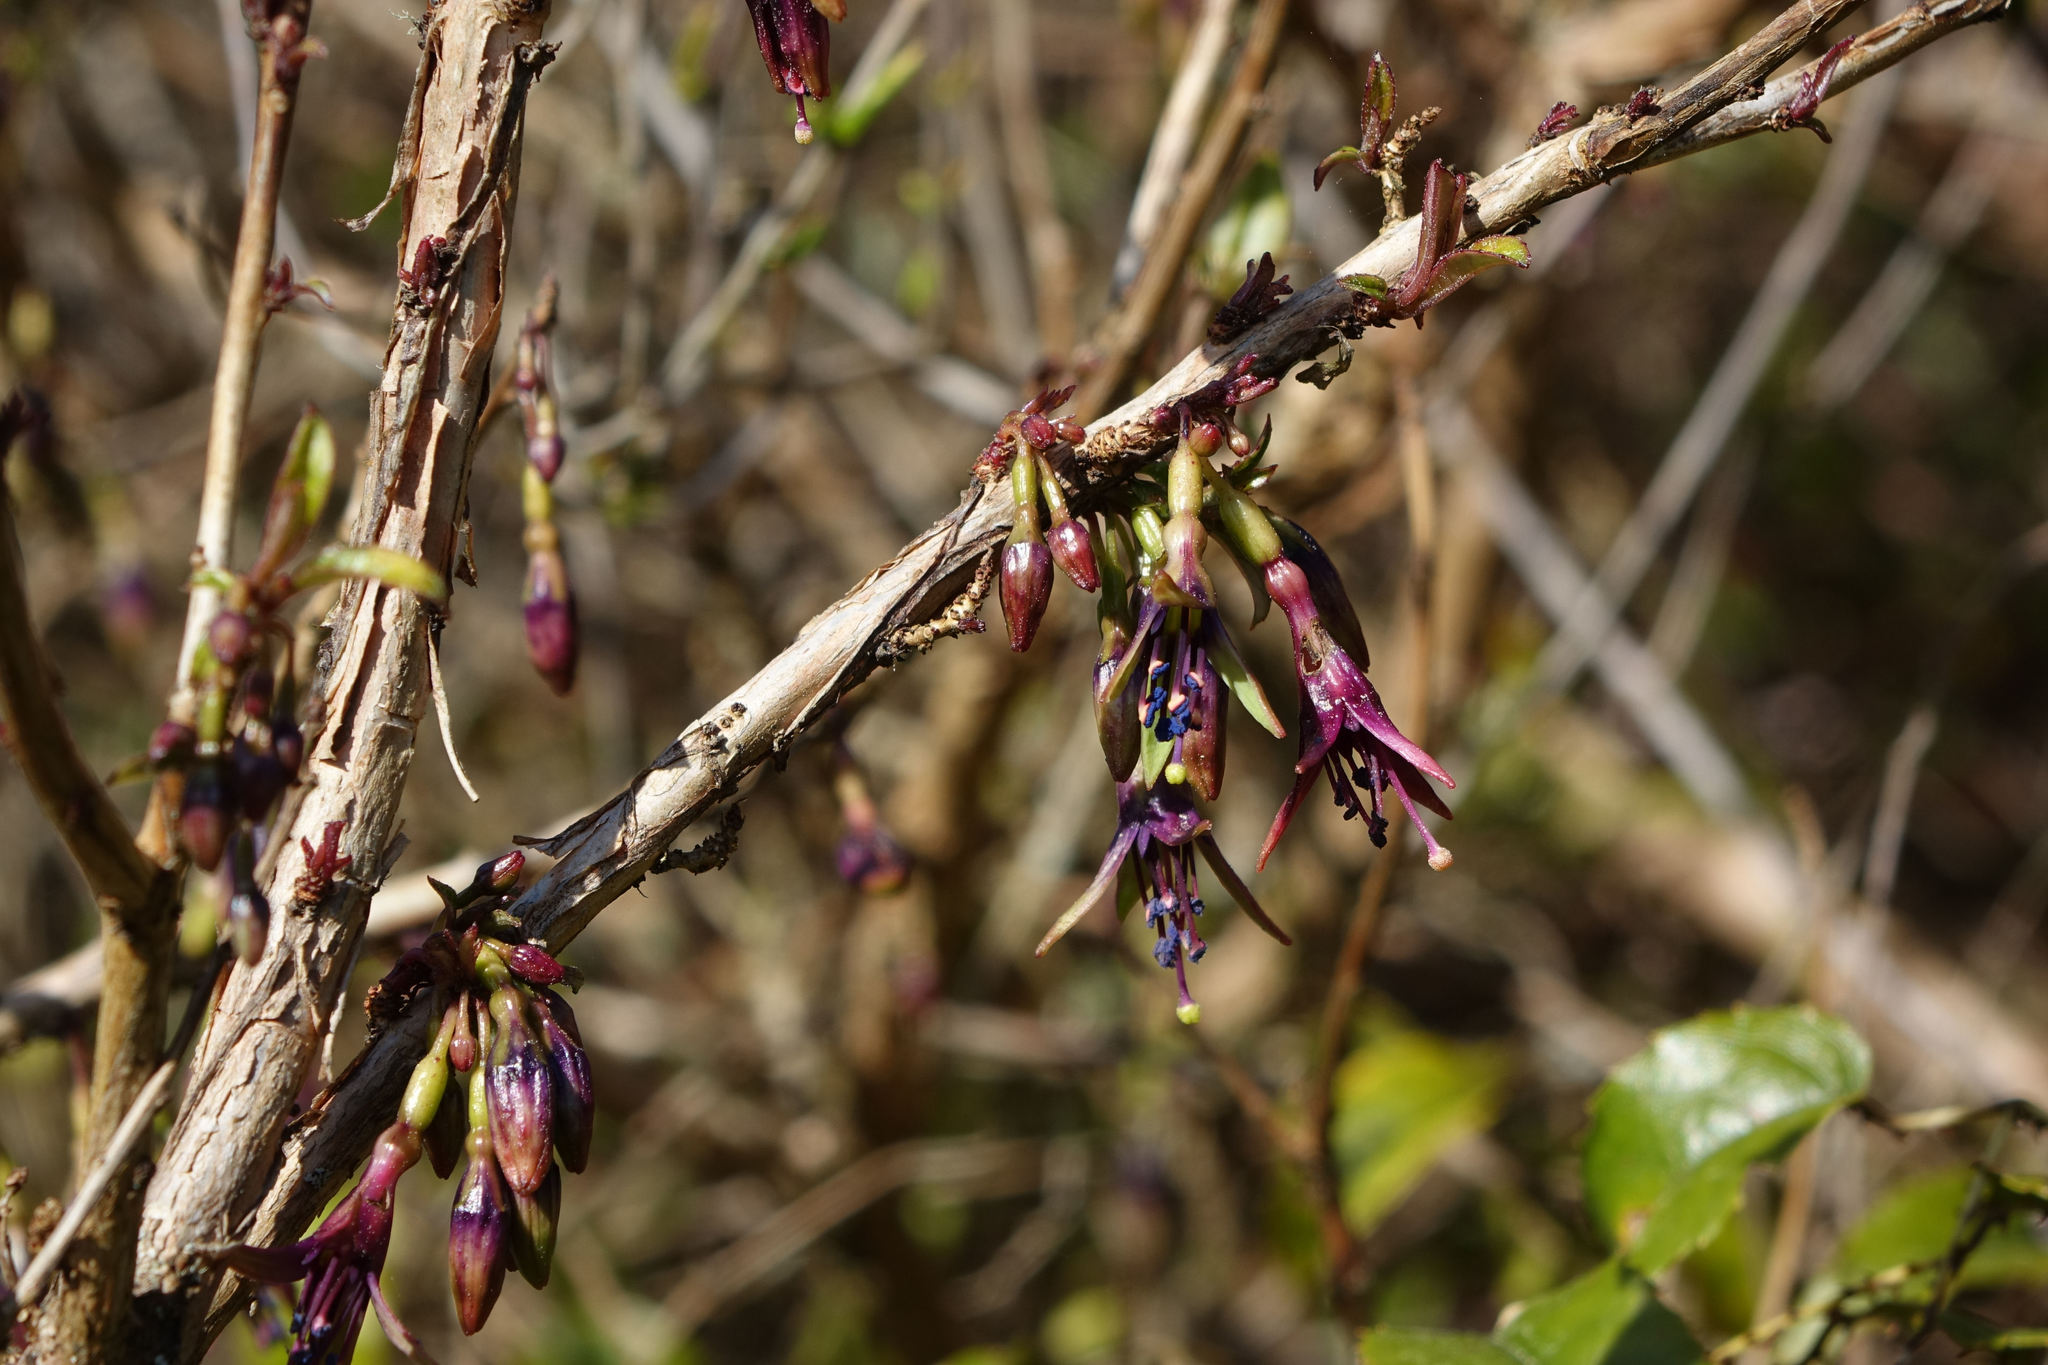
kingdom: Plantae
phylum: Tracheophyta
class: Magnoliopsida
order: Myrtales
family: Onagraceae
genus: Fuchsia
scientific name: Fuchsia excorticata
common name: Tree fuchsia
